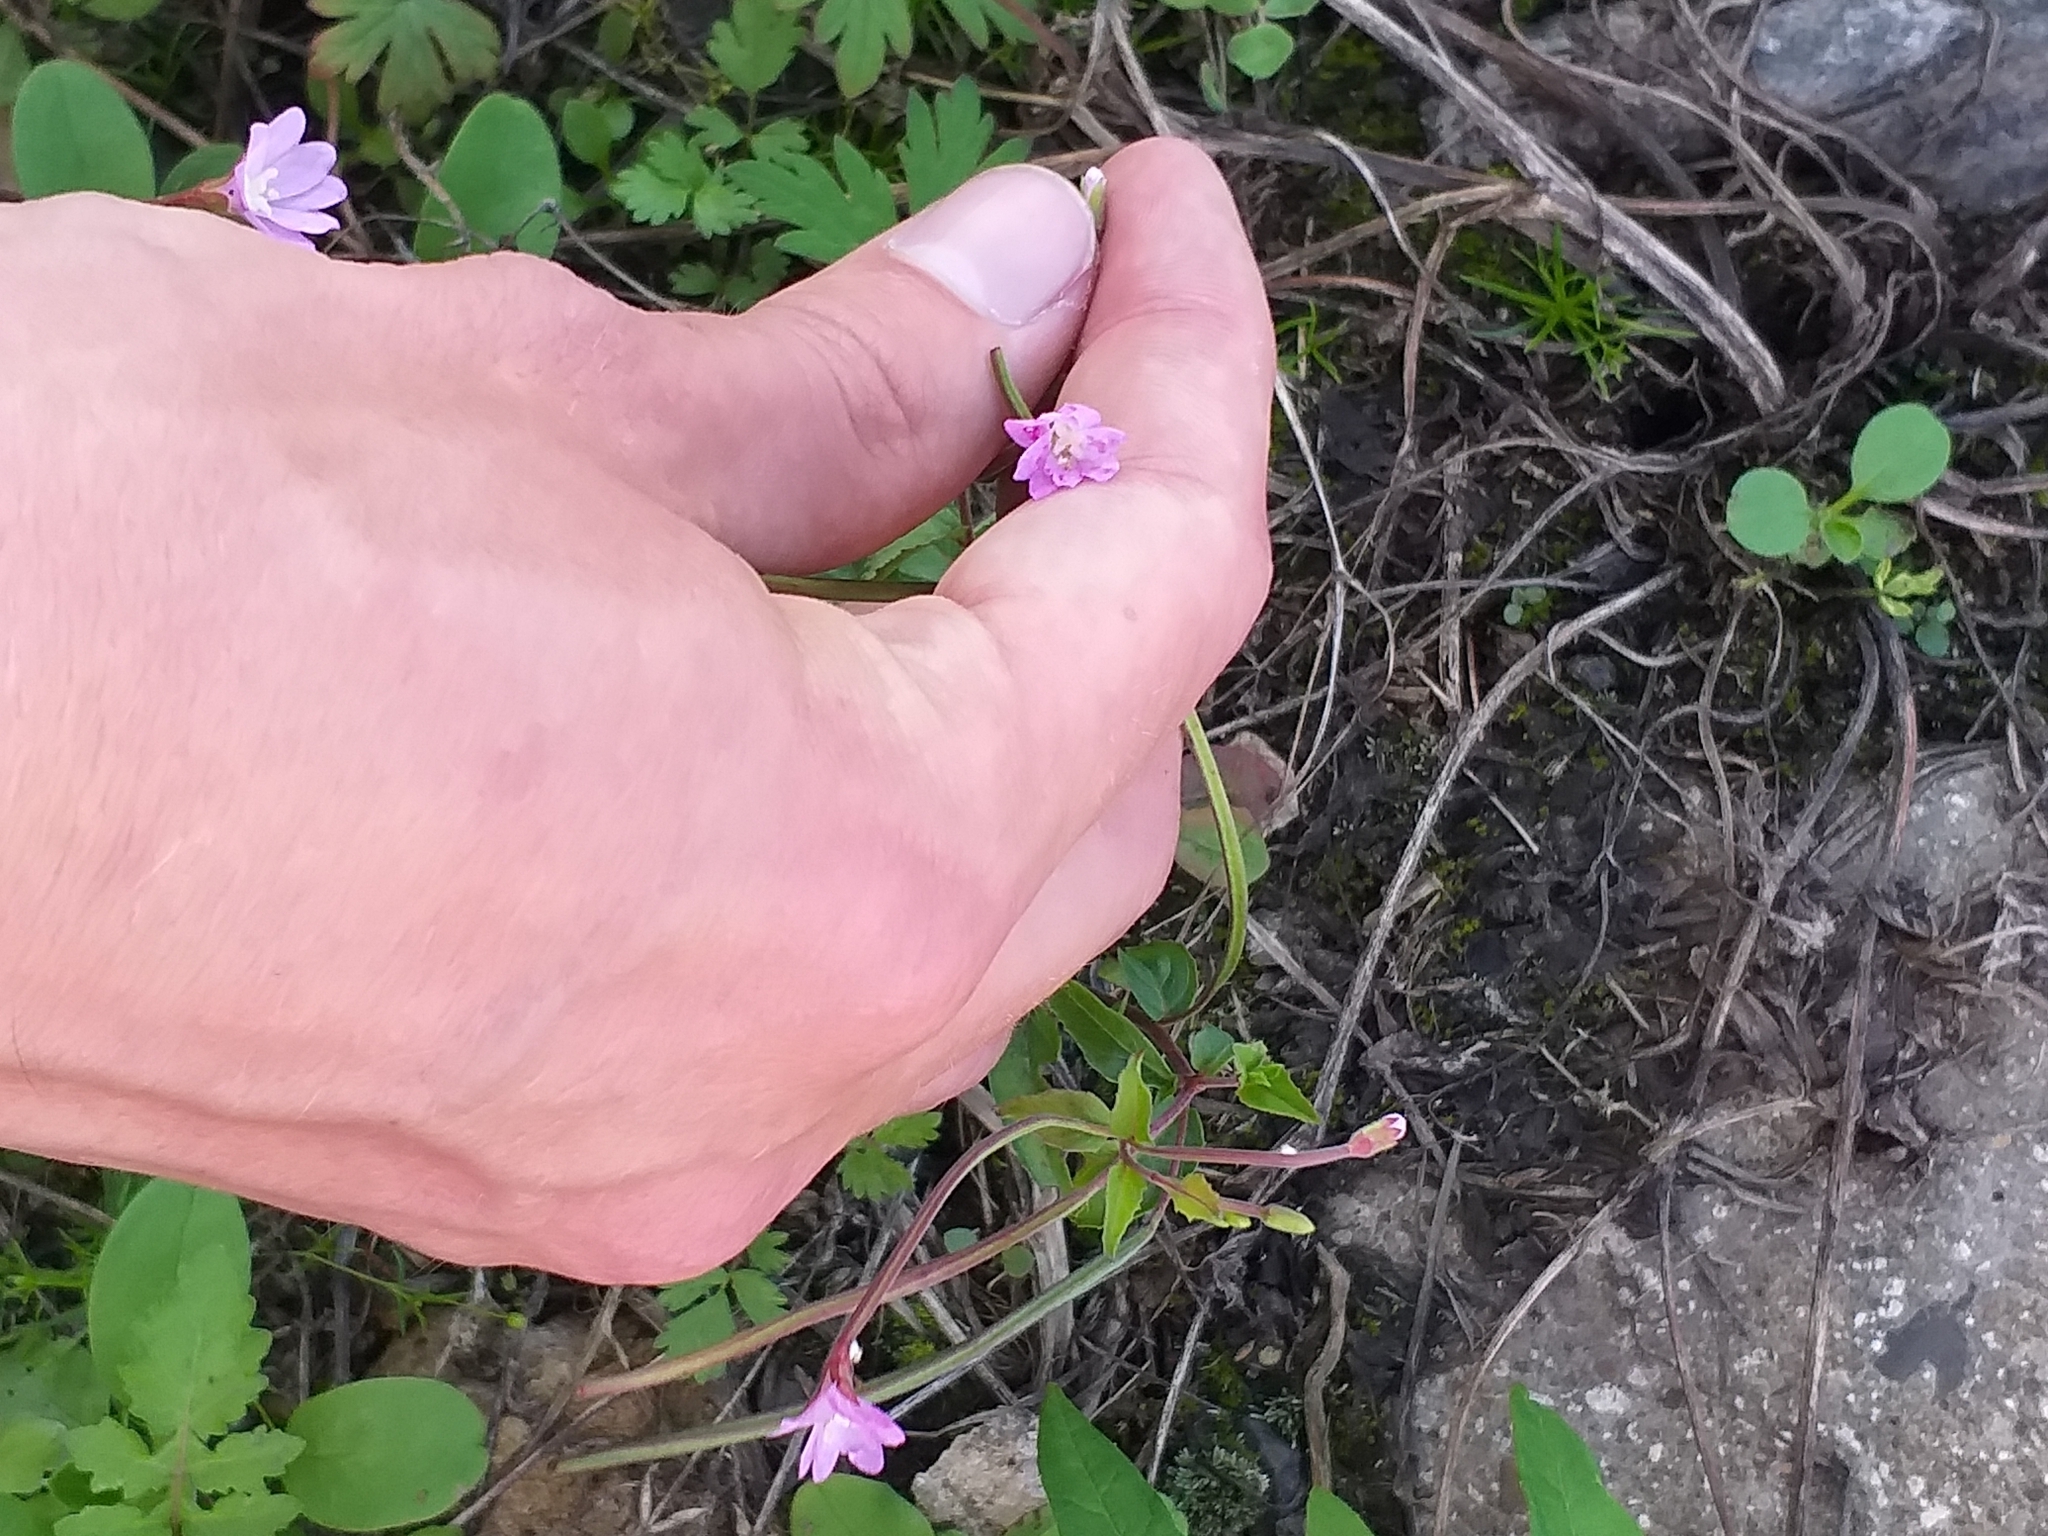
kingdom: Plantae
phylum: Tracheophyta
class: Magnoliopsida
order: Myrtales
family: Onagraceae
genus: Epilobium
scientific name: Epilobium montanum
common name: Broad-leaved willowherb
